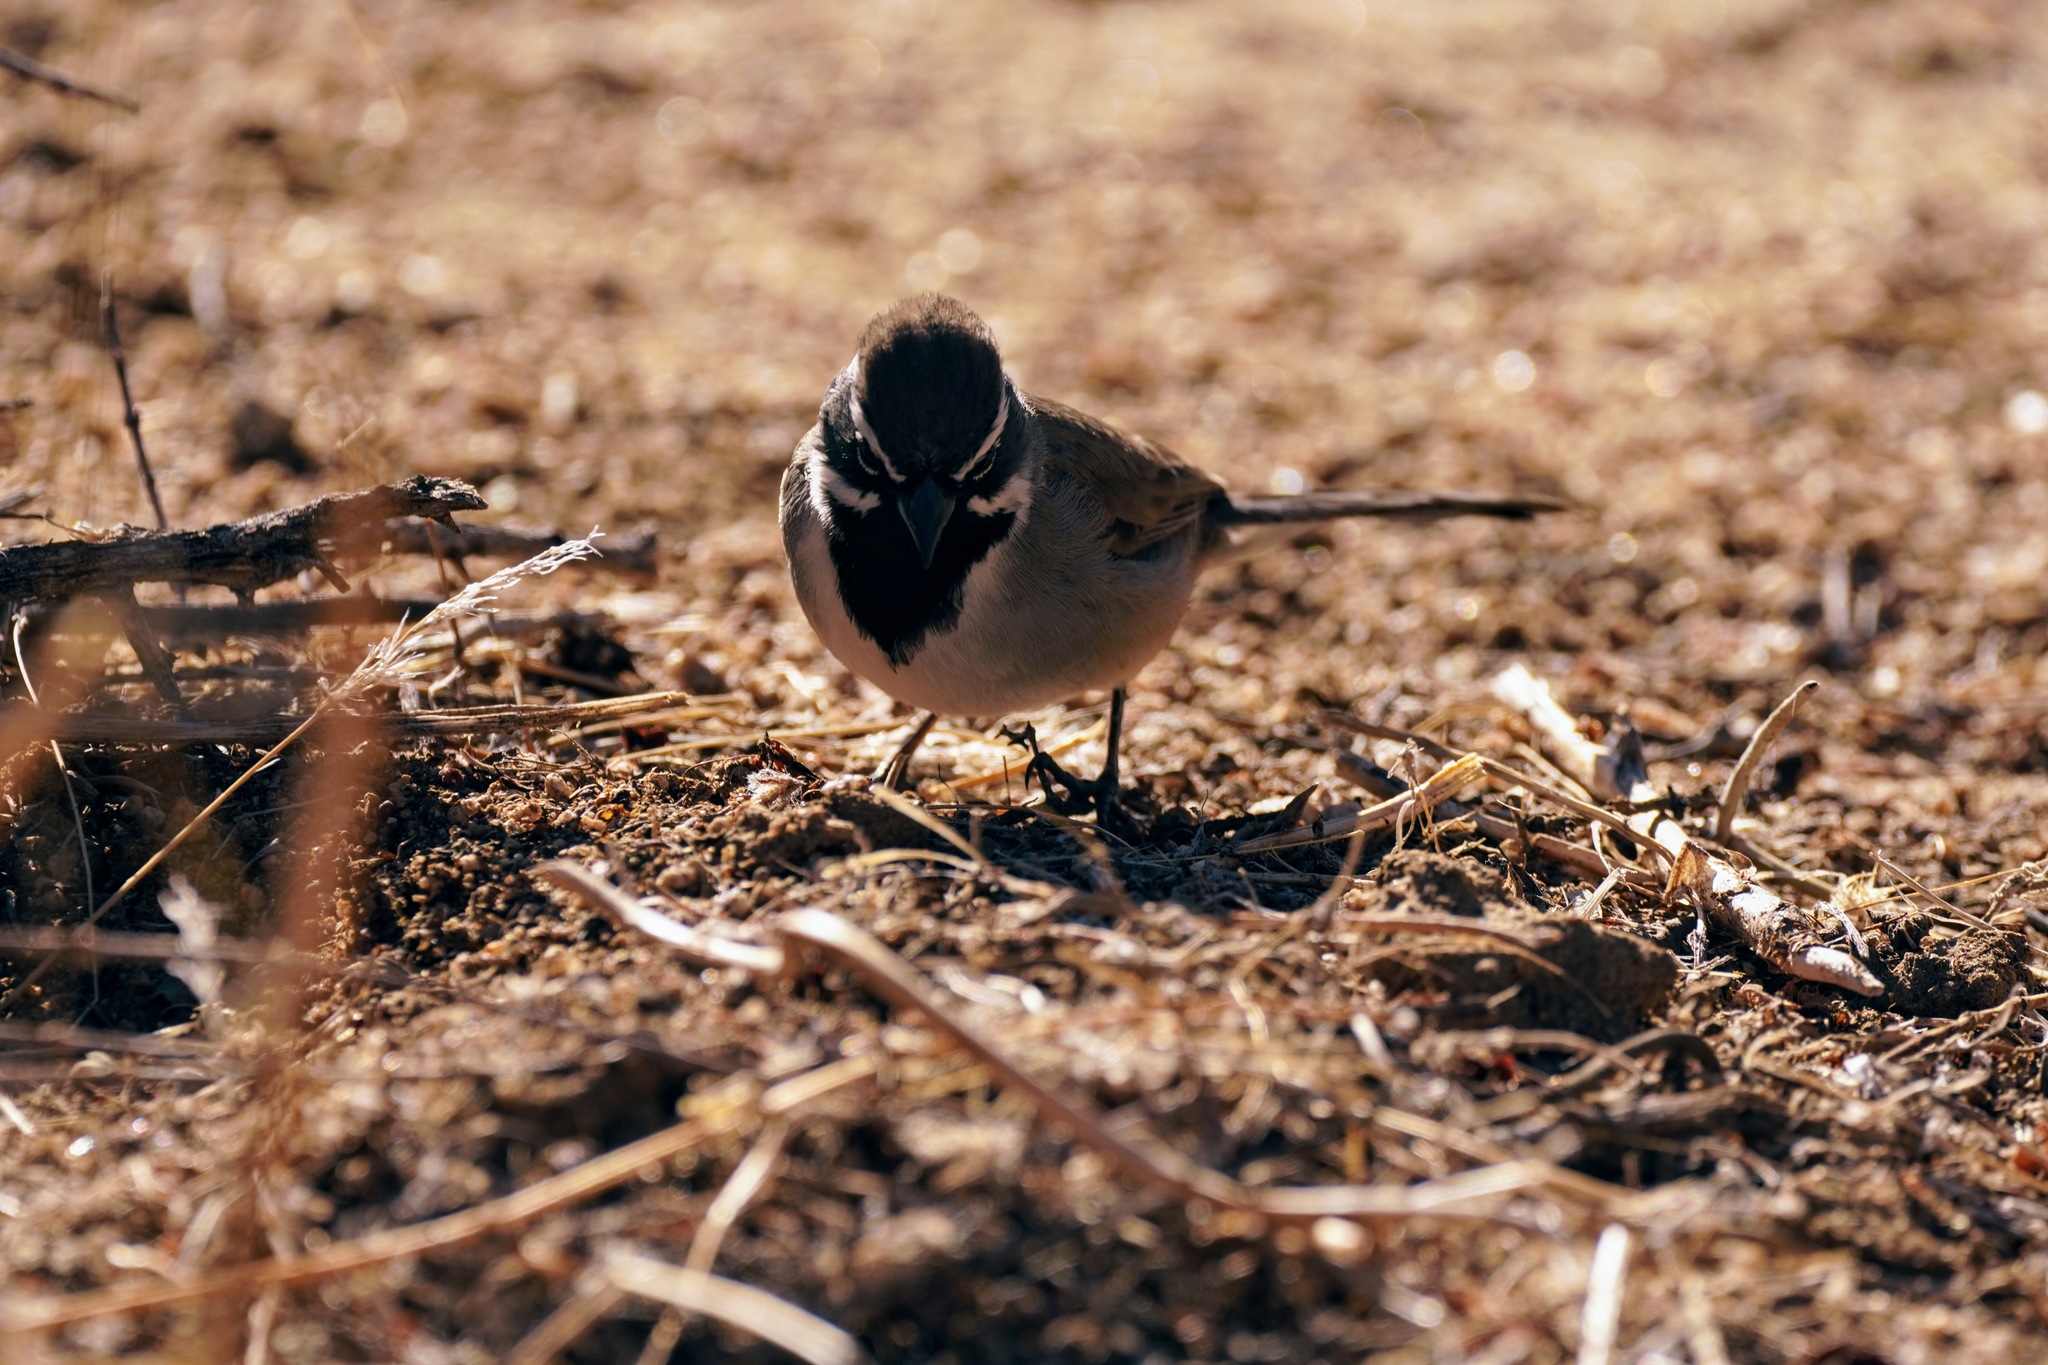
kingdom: Animalia
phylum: Chordata
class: Aves
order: Passeriformes
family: Passerellidae
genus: Amphispiza
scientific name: Amphispiza bilineata
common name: Black-throated sparrow
